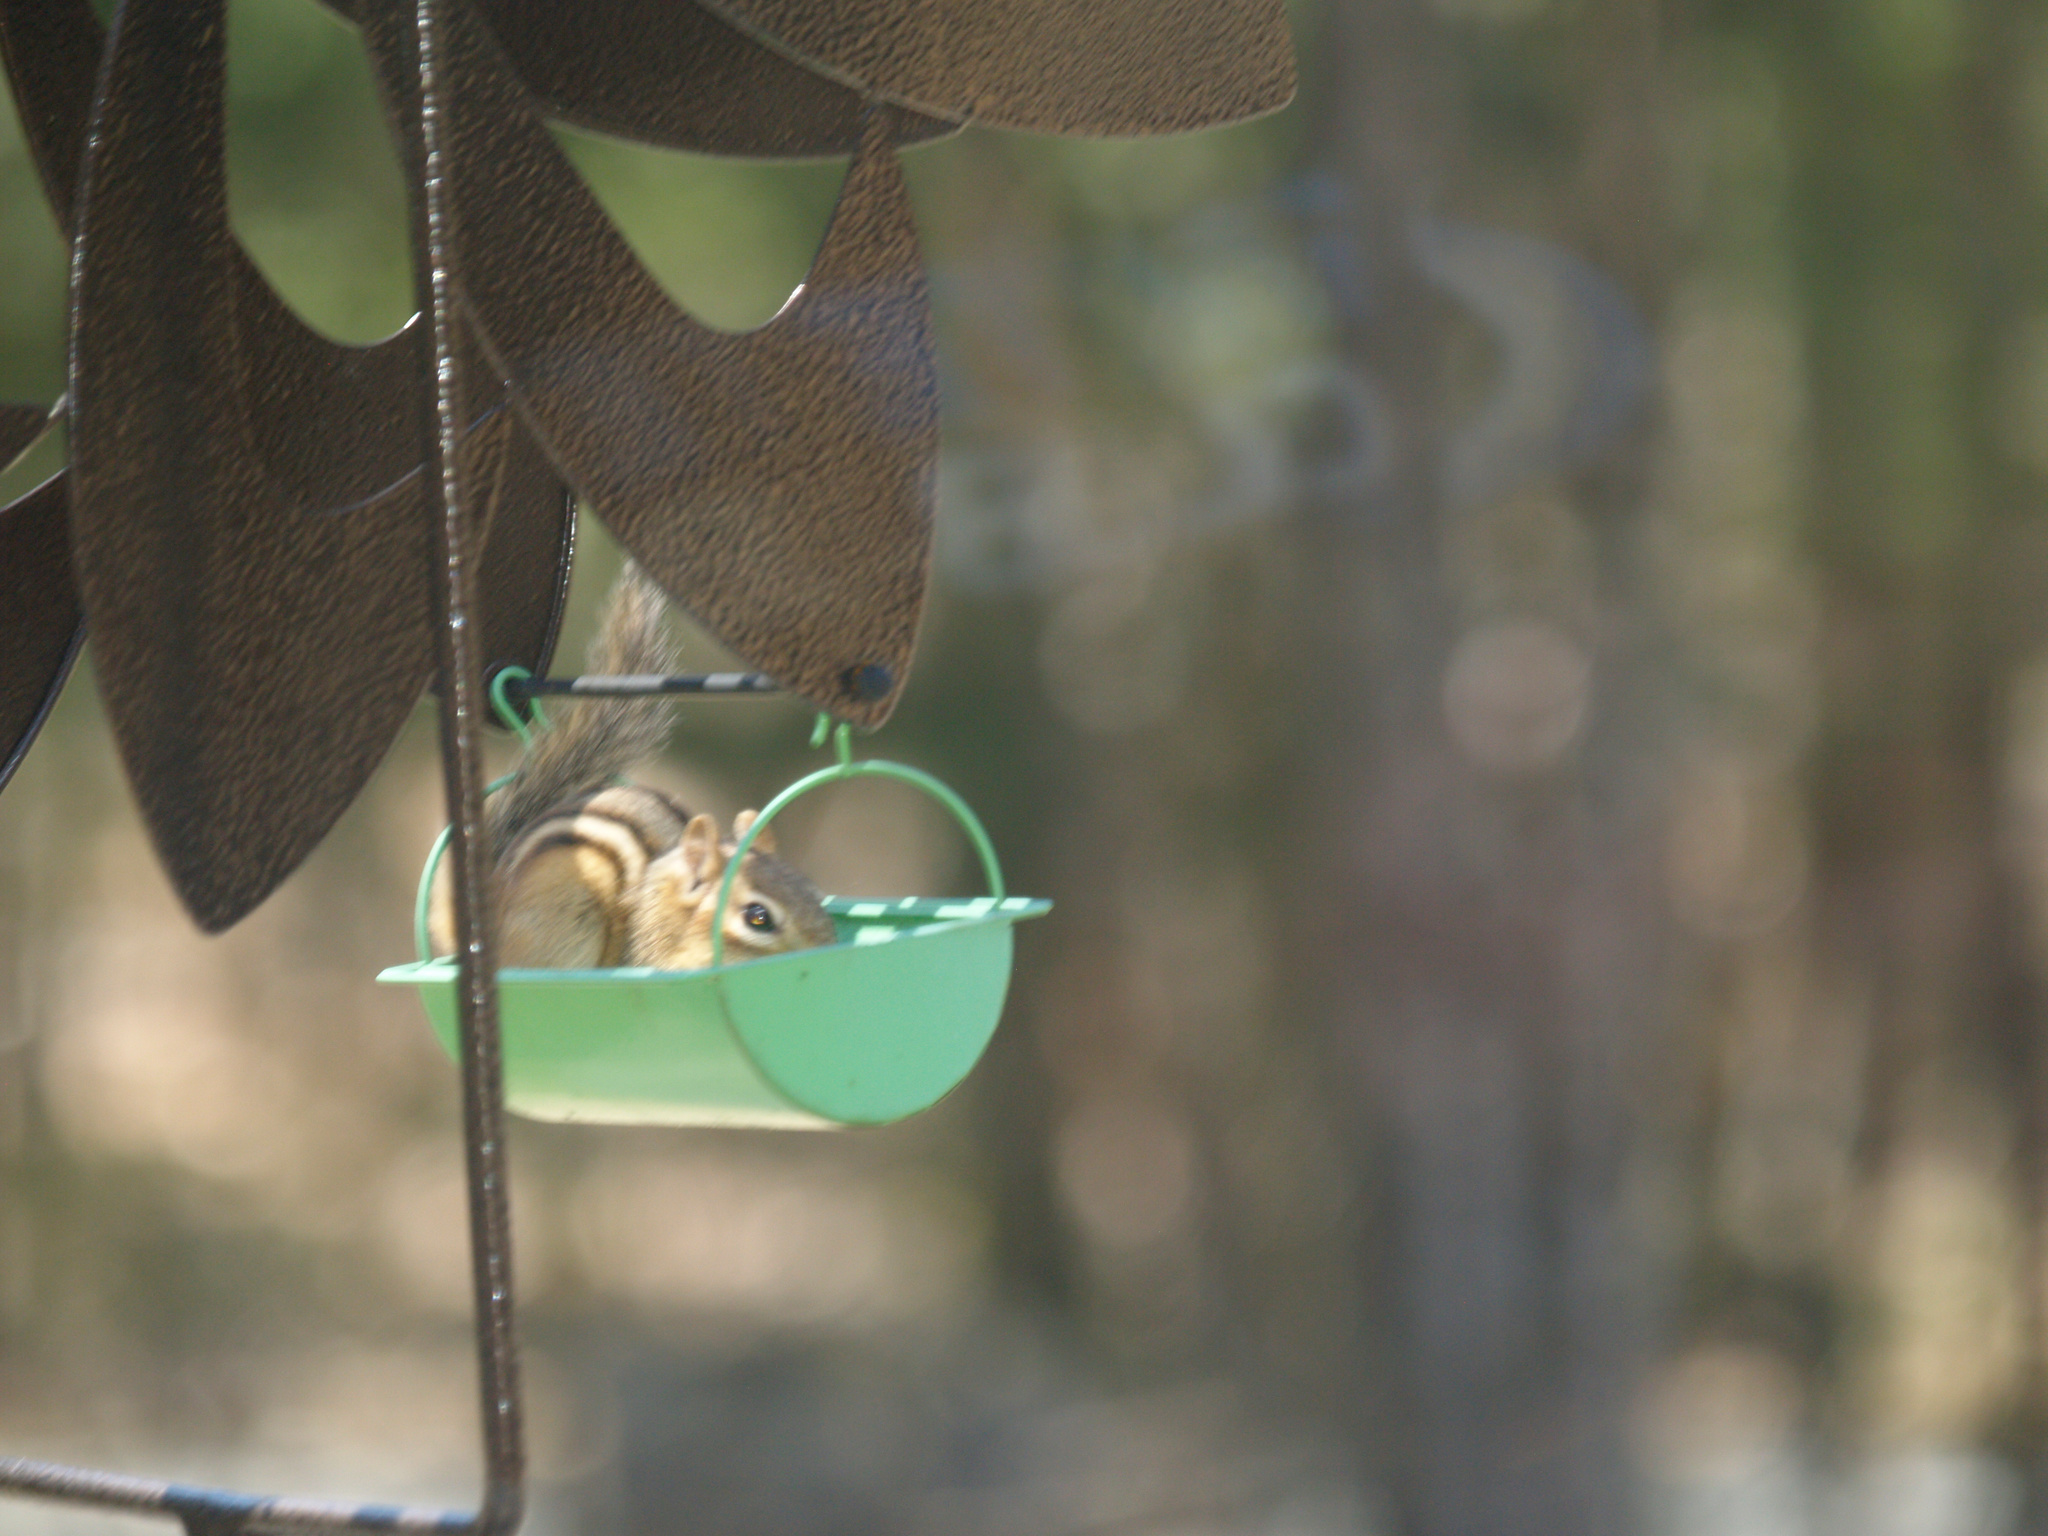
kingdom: Animalia
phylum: Chordata
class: Mammalia
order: Rodentia
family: Sciuridae
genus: Tamias
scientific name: Tamias striatus
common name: Eastern chipmunk
